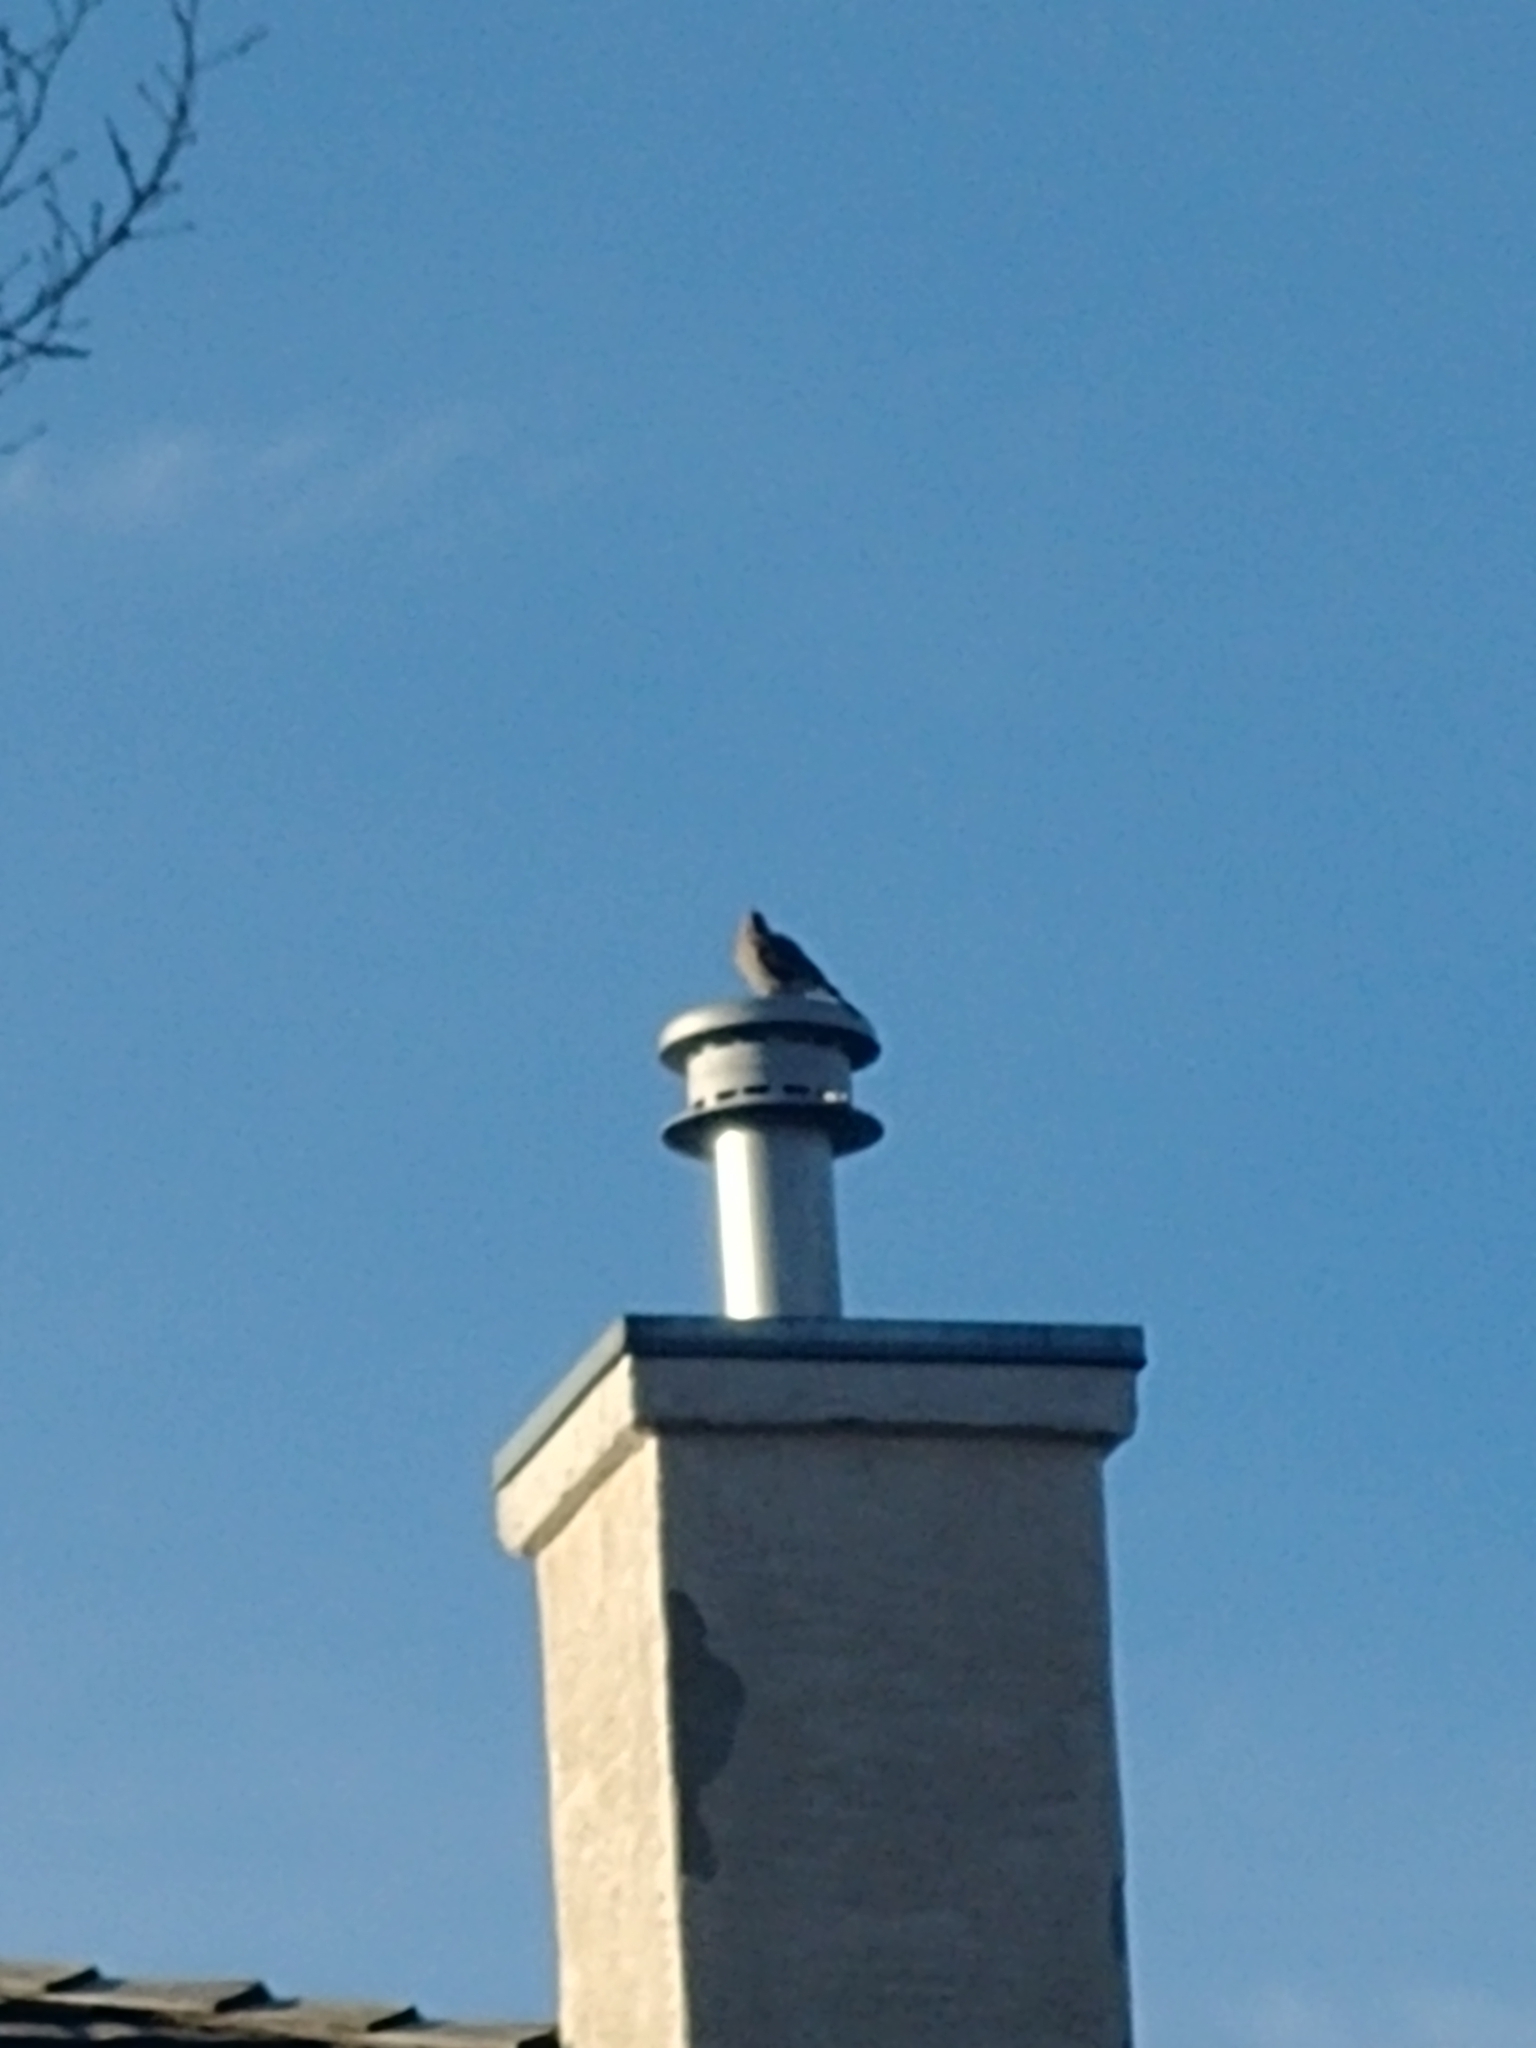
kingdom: Animalia
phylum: Chordata
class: Aves
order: Piciformes
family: Picidae
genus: Colaptes
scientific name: Colaptes auratus
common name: Northern flicker
